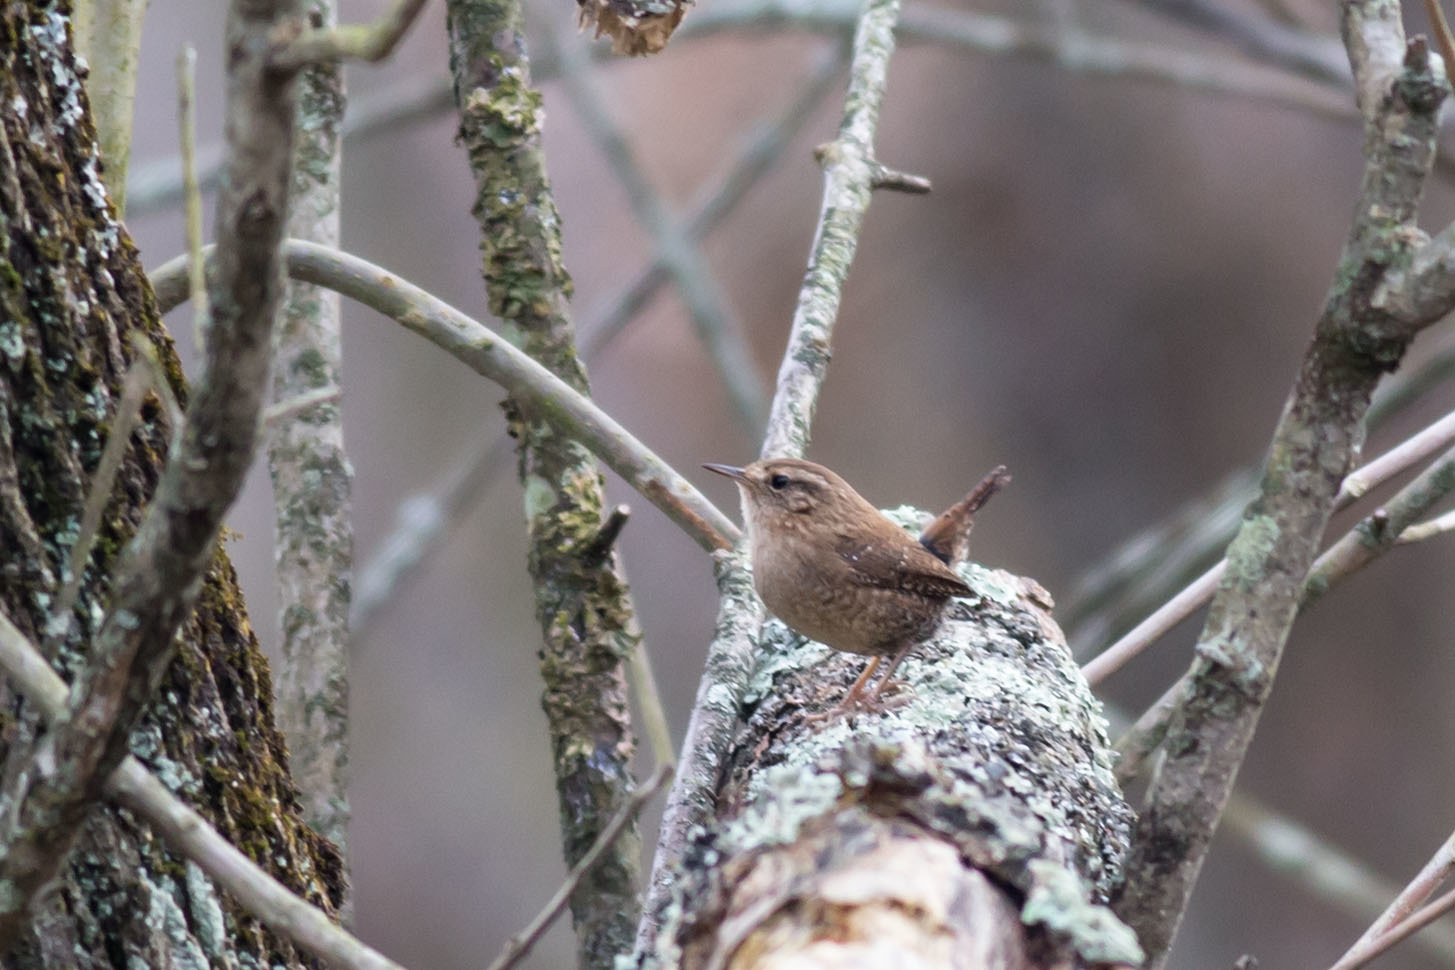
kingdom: Animalia
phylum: Chordata
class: Aves
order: Passeriformes
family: Troglodytidae
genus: Troglodytes
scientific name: Troglodytes hiemalis
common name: Winter wren
